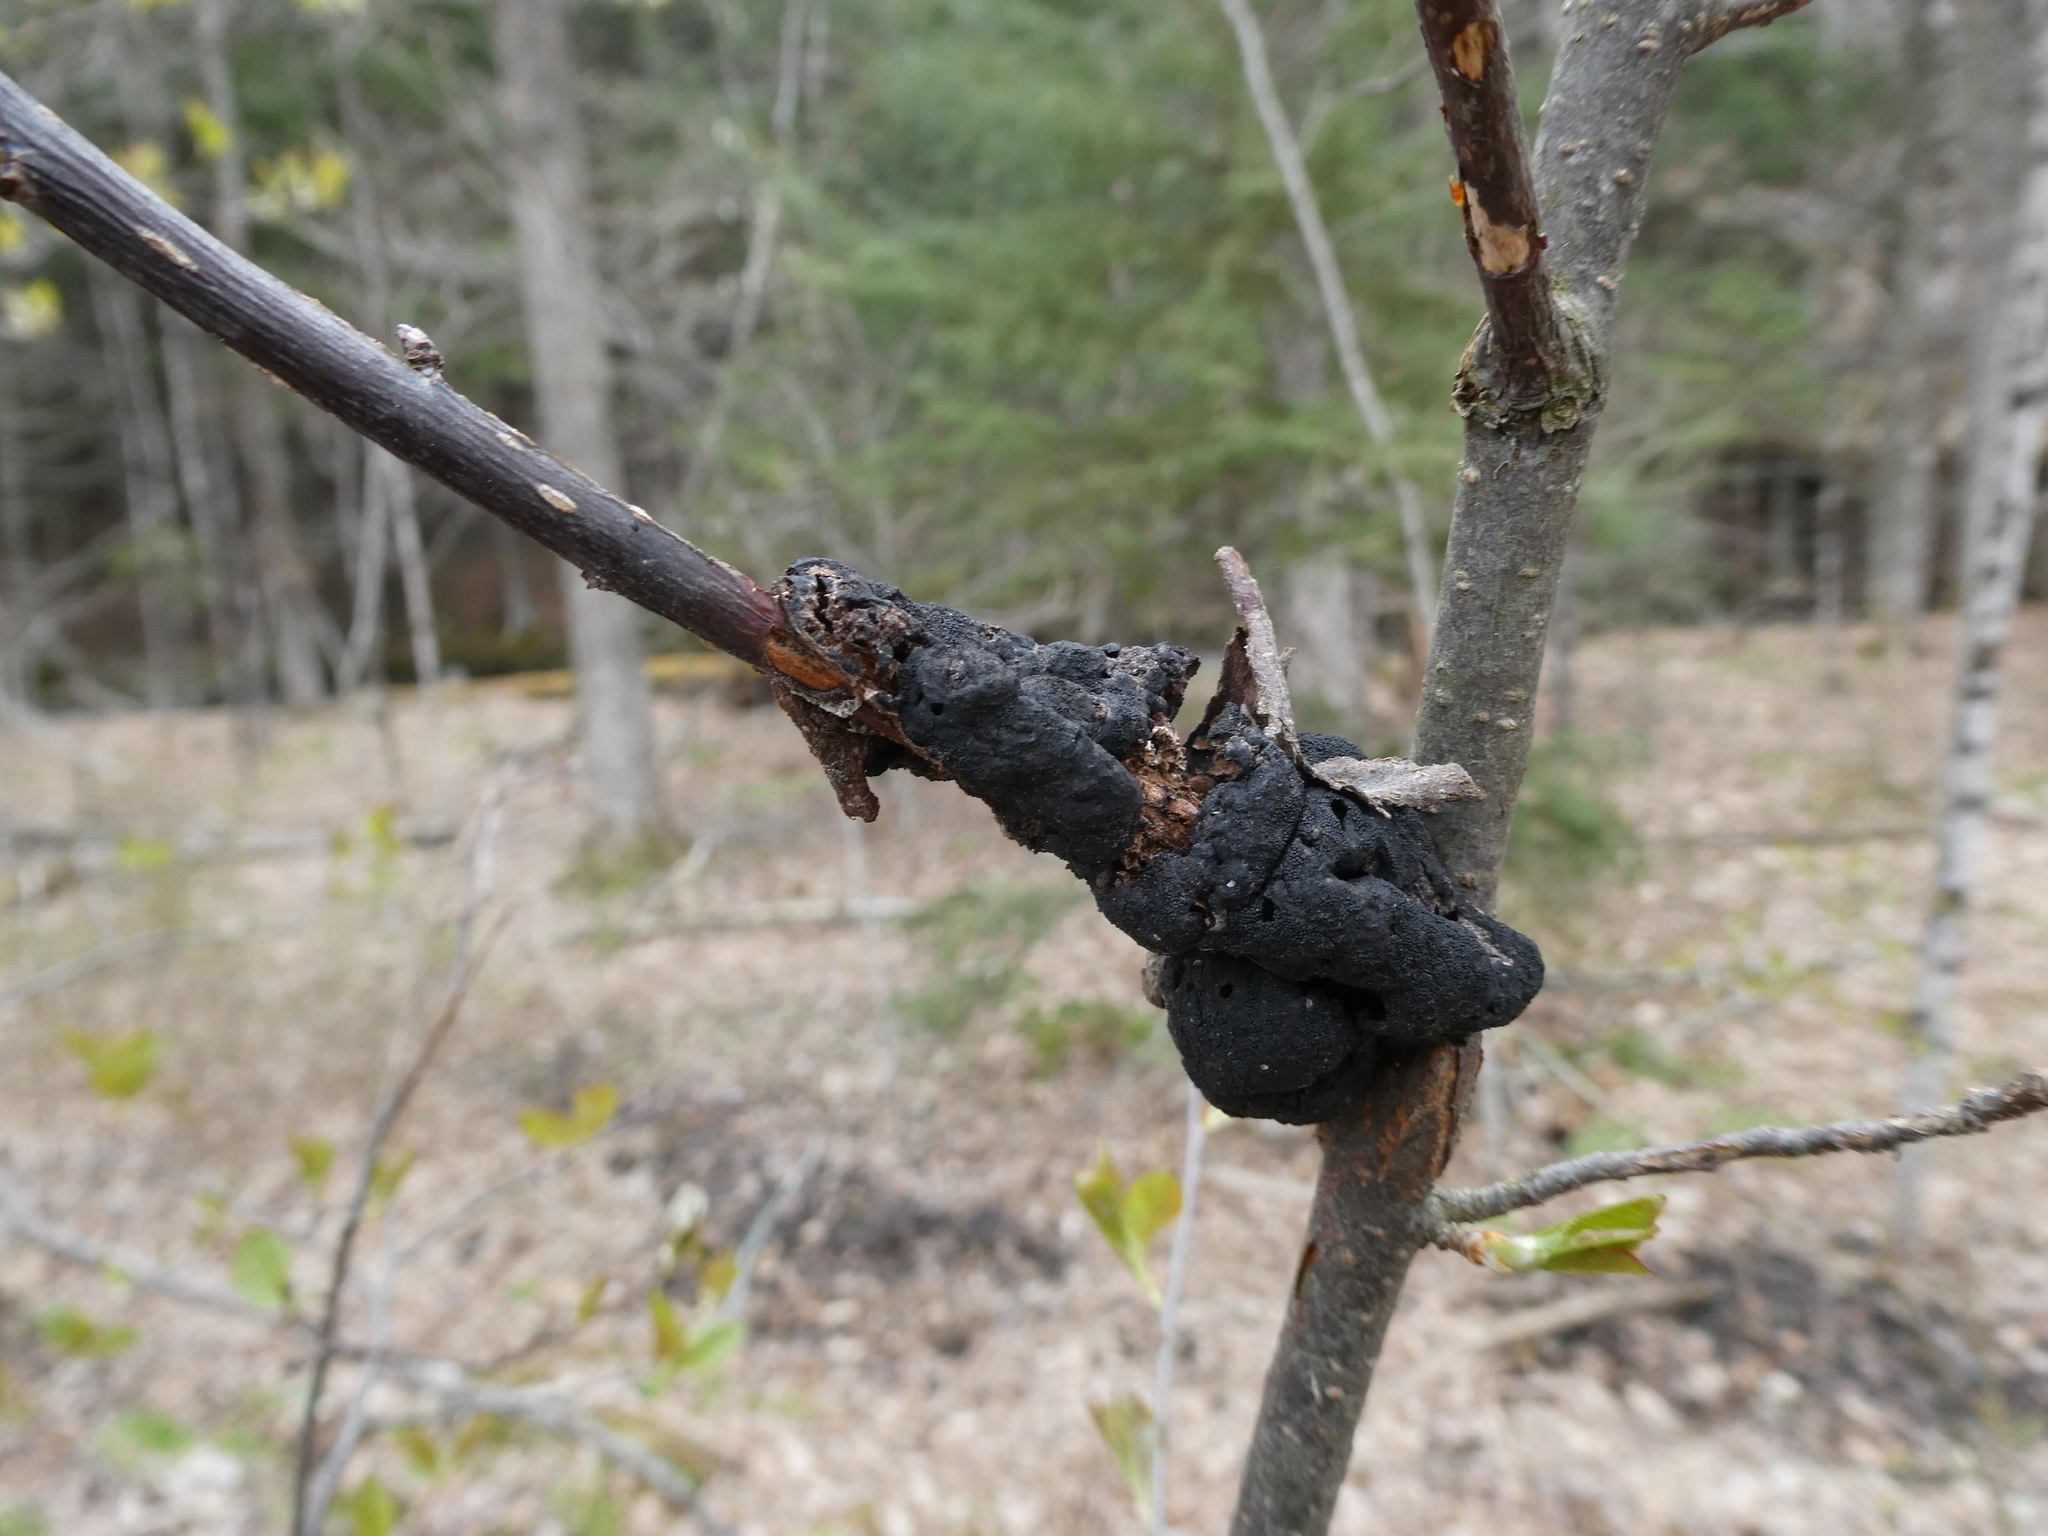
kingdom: Fungi
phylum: Ascomycota
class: Dothideomycetes
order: Venturiales
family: Venturiaceae
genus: Apiosporina
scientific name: Apiosporina morbosa
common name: Black knot
